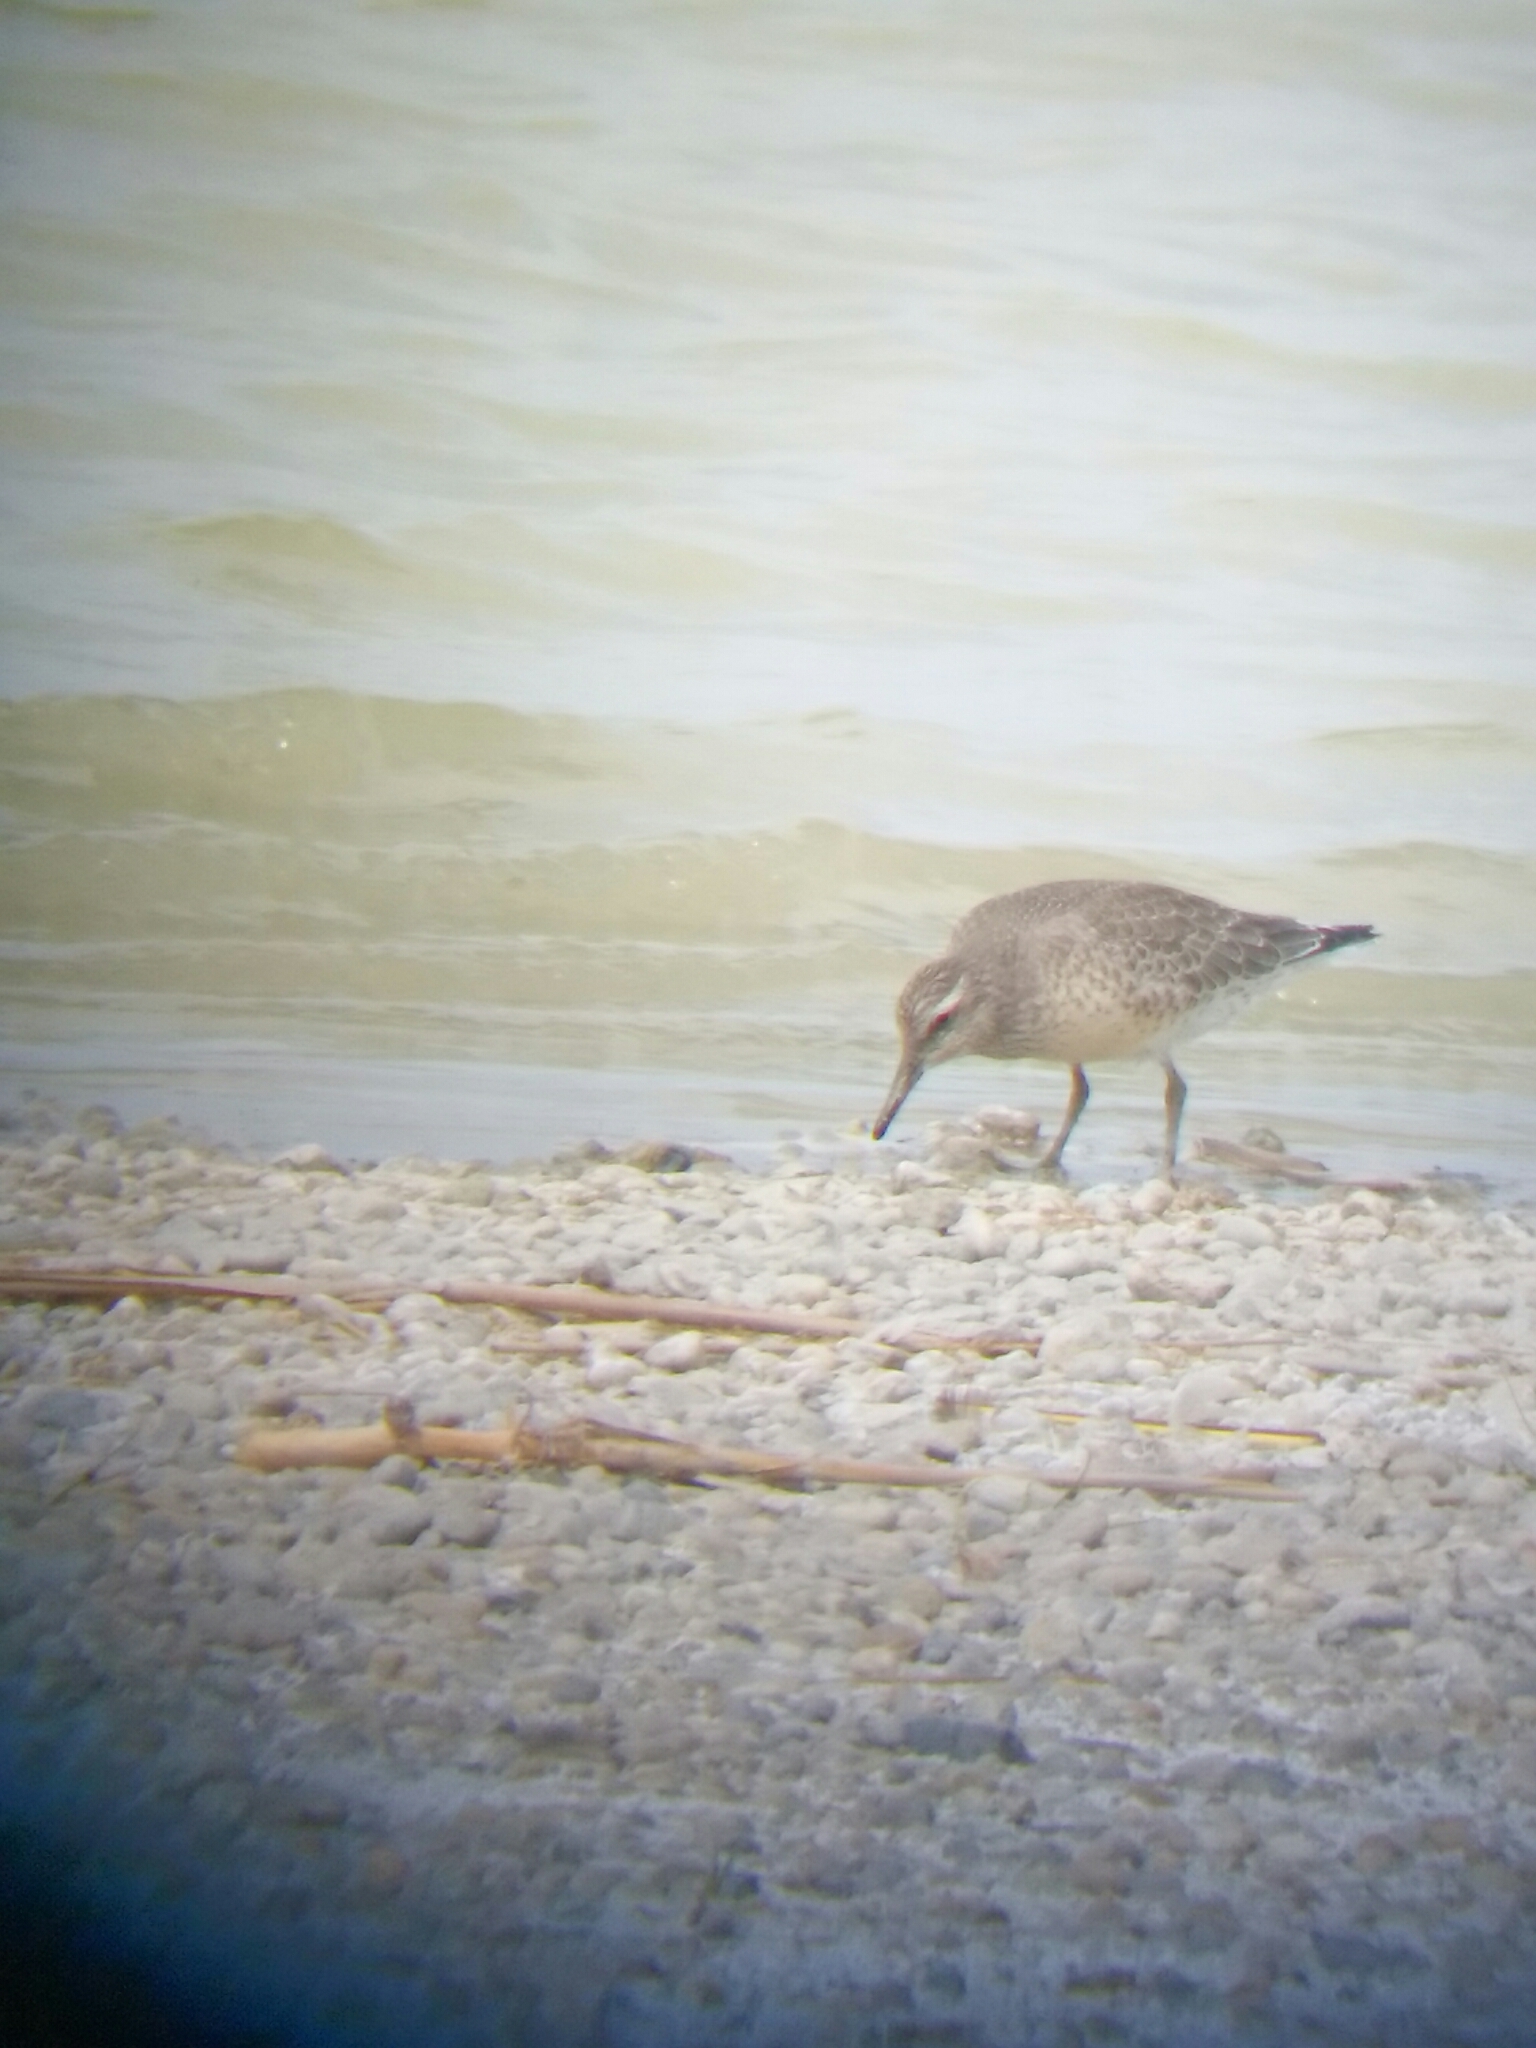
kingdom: Animalia
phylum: Chordata
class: Aves
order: Charadriiformes
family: Scolopacidae
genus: Calidris
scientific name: Calidris canutus
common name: Red knot
